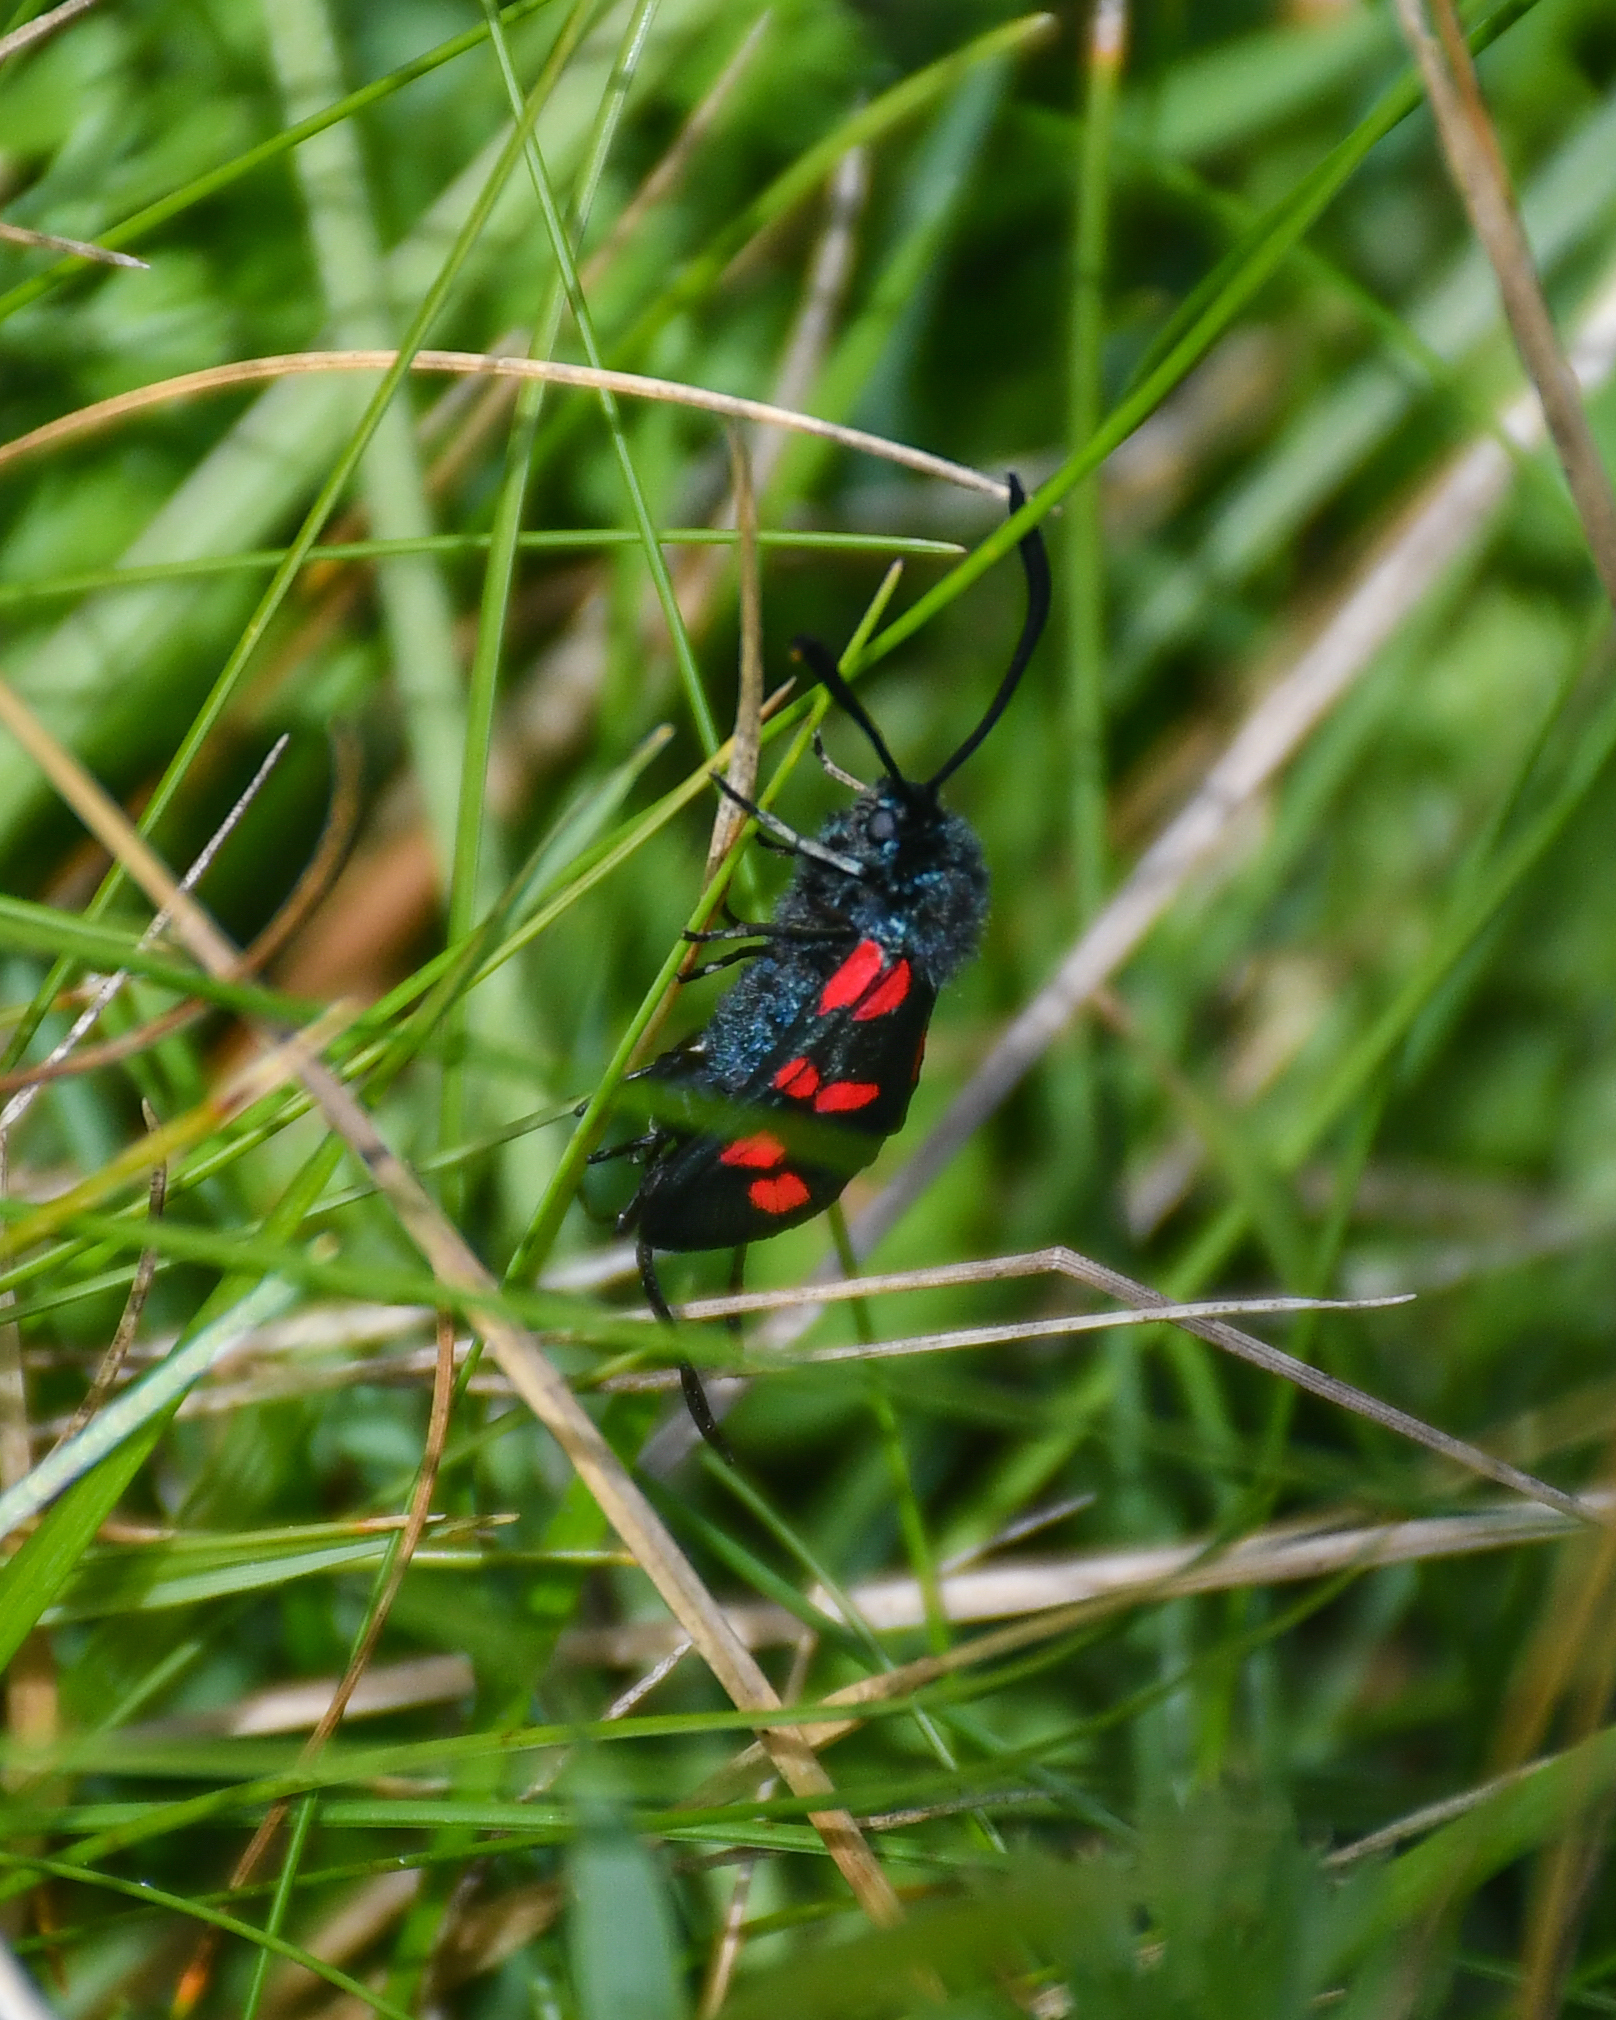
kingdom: Animalia
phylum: Arthropoda
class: Insecta
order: Lepidoptera
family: Zygaenidae
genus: Zygaena
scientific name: Zygaena filipendulae
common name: Six-spot burnet
